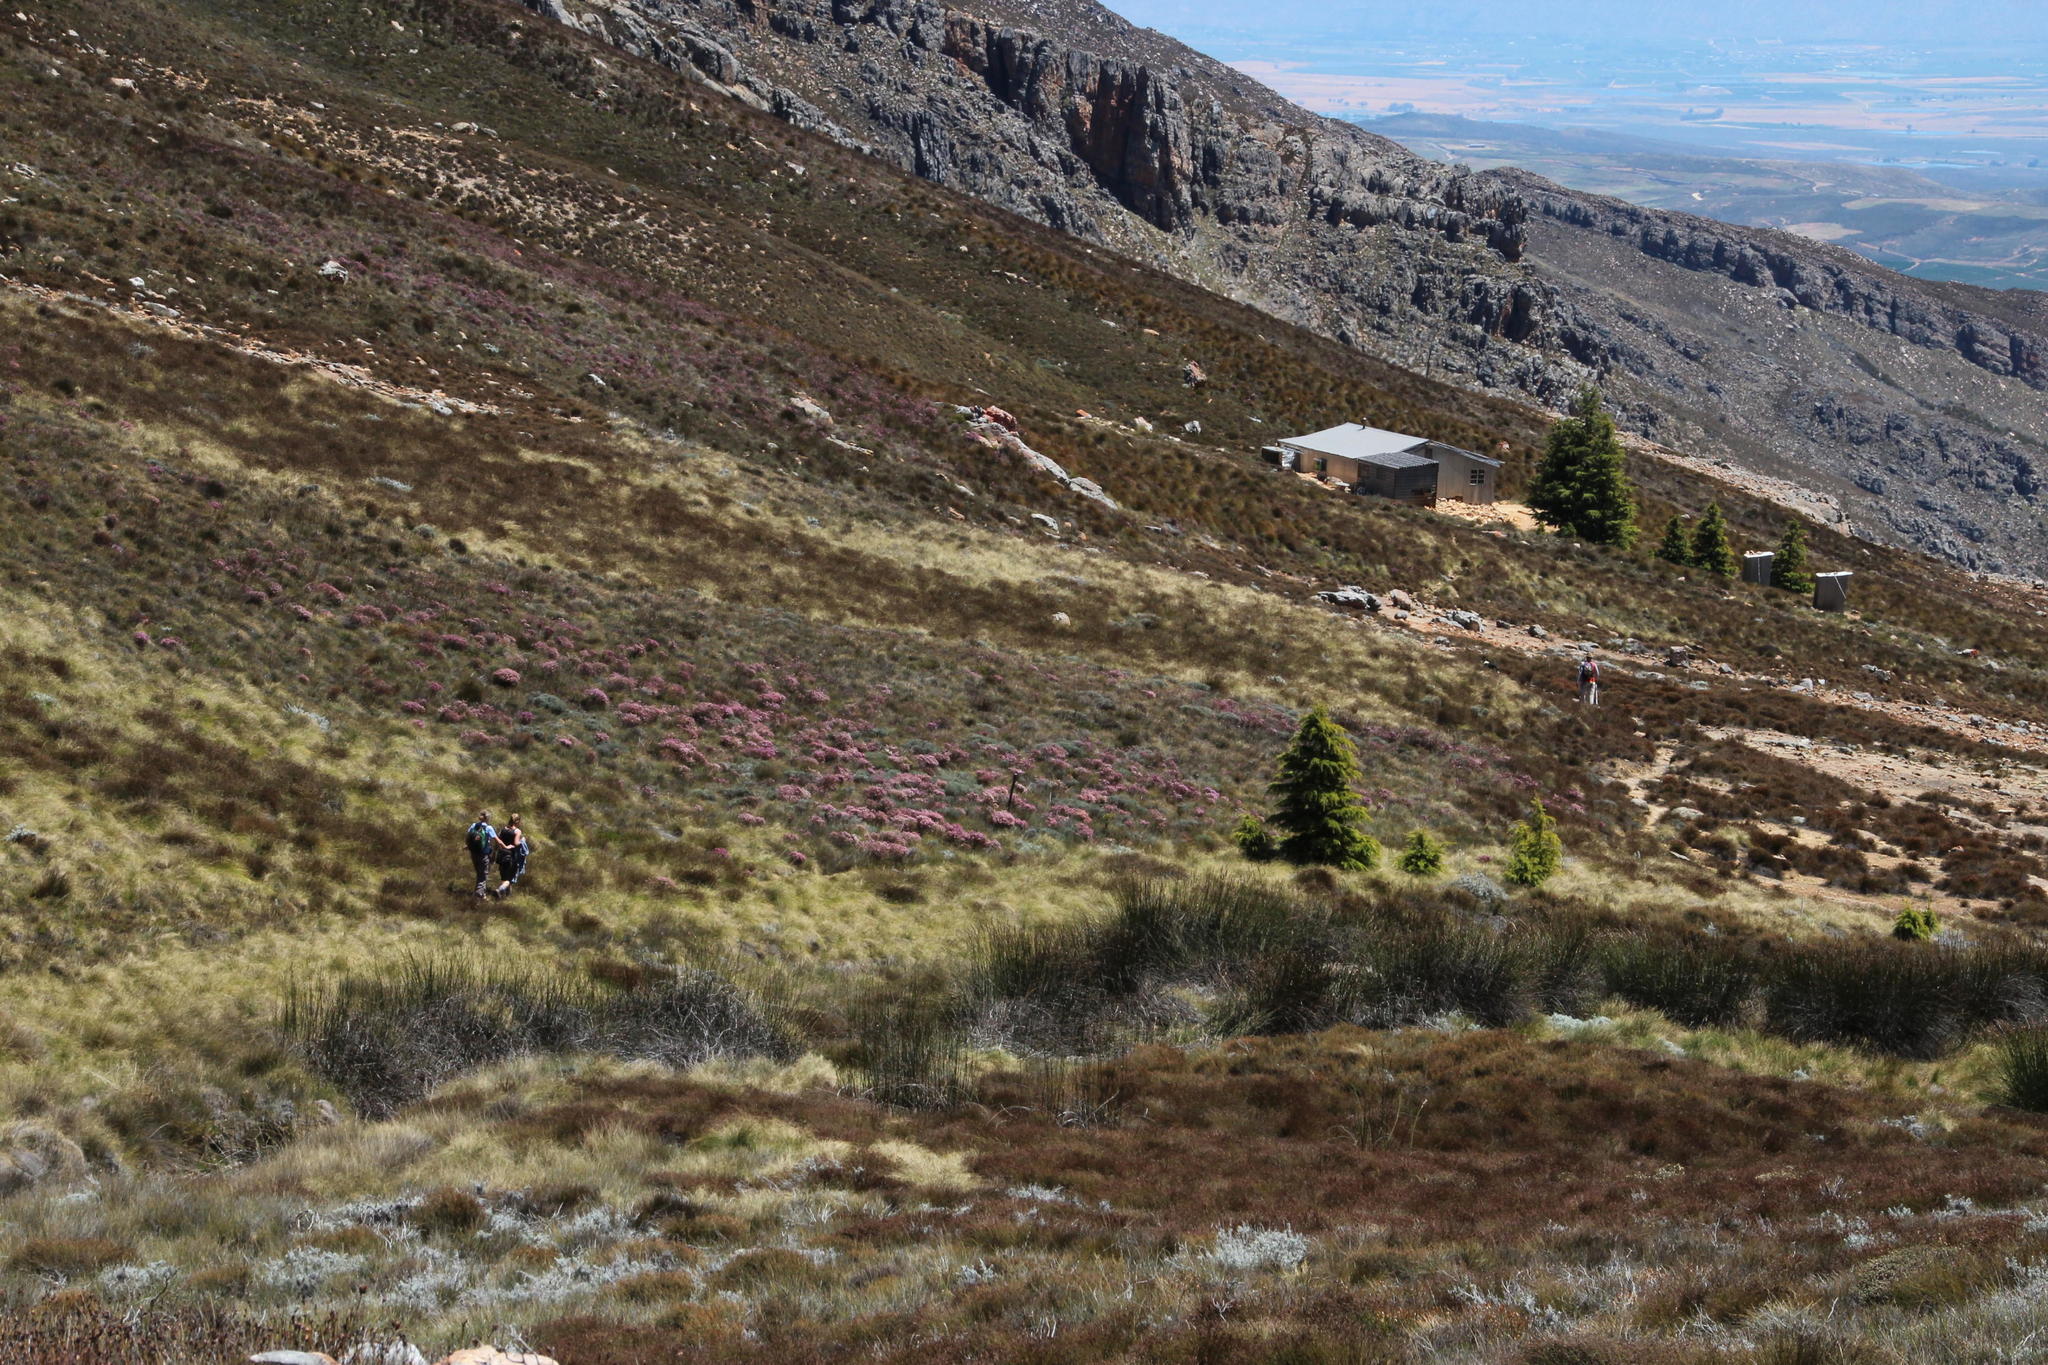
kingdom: Plantae
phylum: Tracheophyta
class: Pinopsida
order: Pinales
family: Pinaceae
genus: Cedrus
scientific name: Cedrus libani
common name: Cedar-of-lebanon
